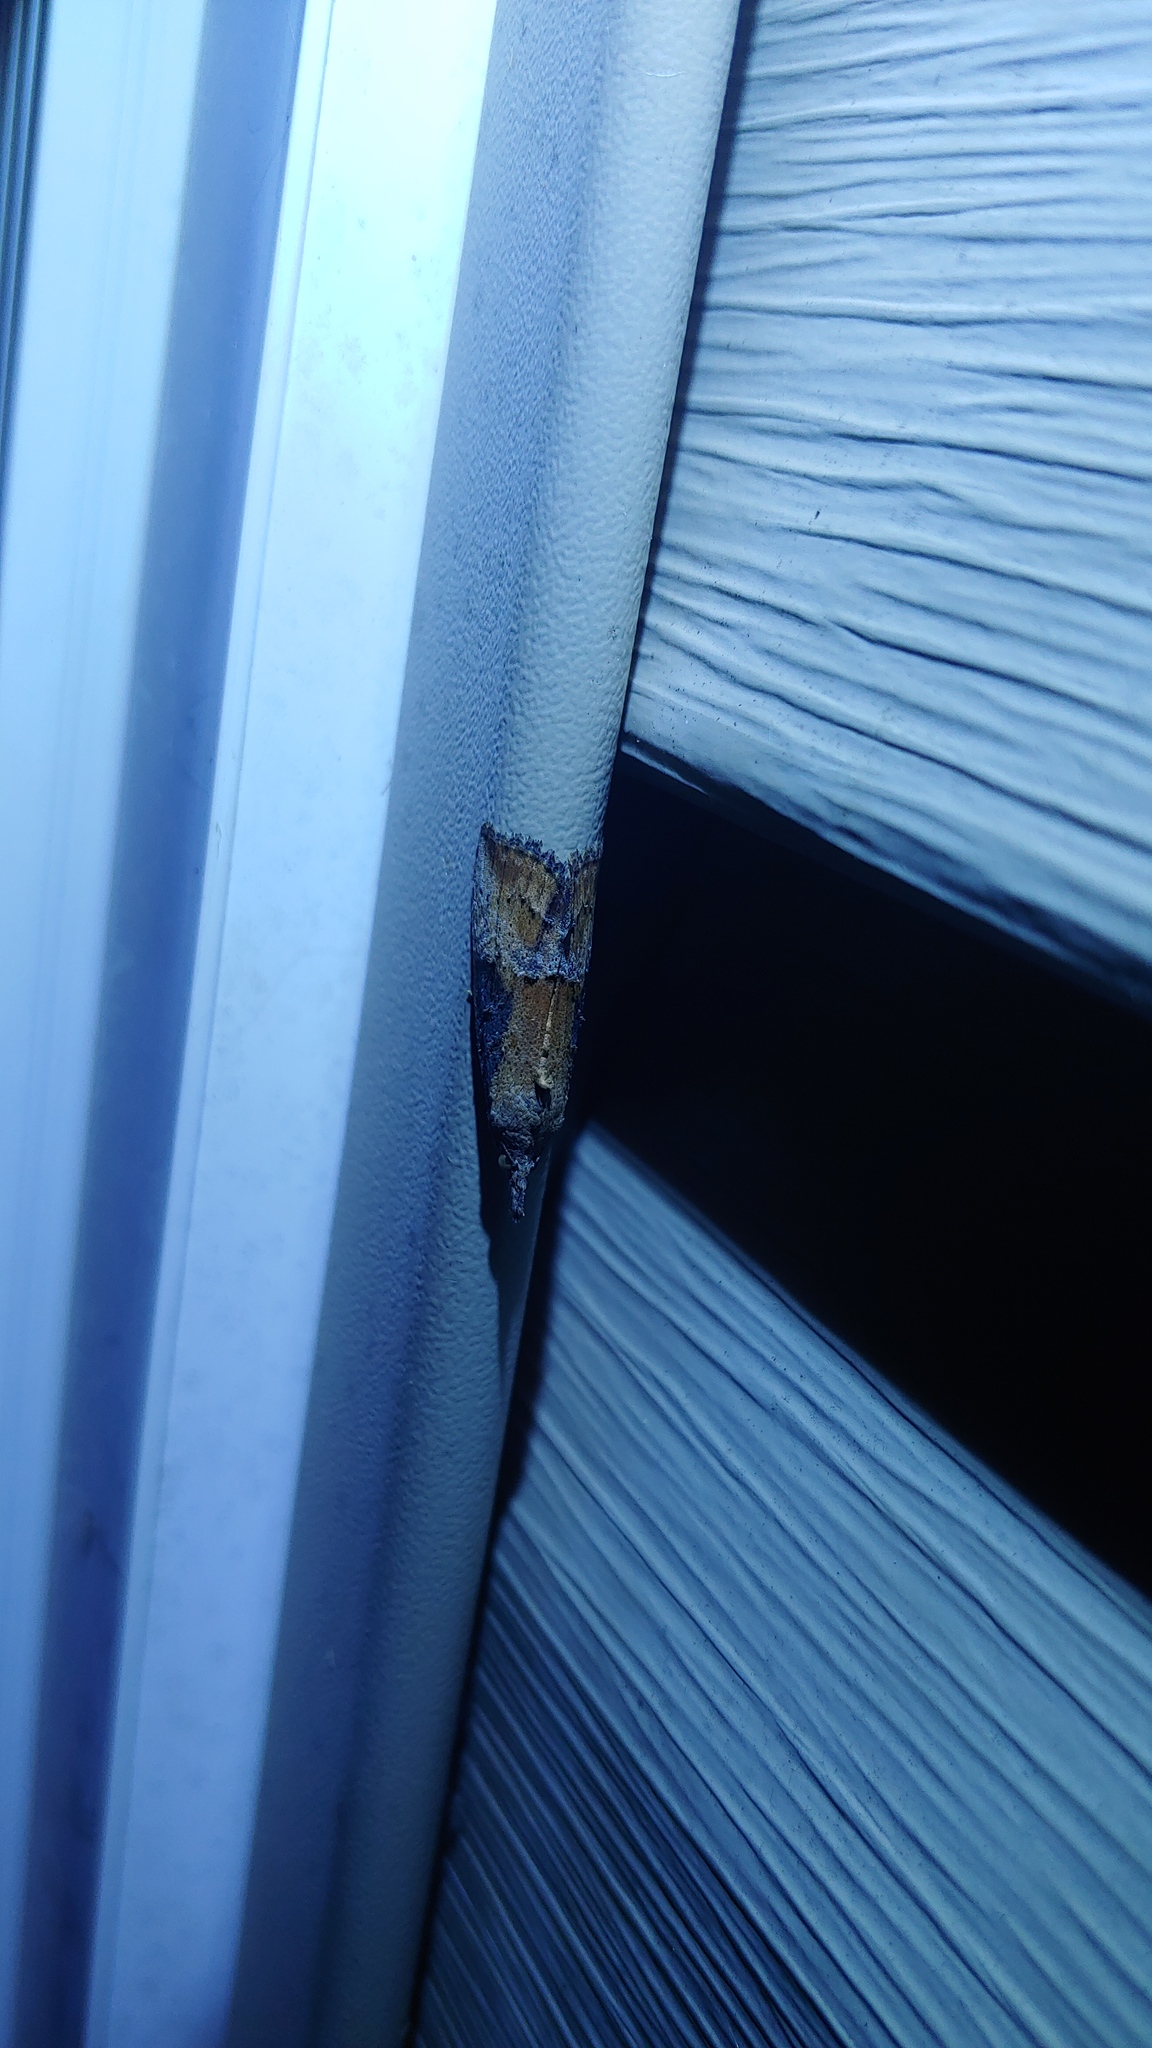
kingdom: Animalia
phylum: Arthropoda
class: Insecta
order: Lepidoptera
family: Erebidae
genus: Hypena
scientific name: Hypena scabra
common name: Green cloverworm
